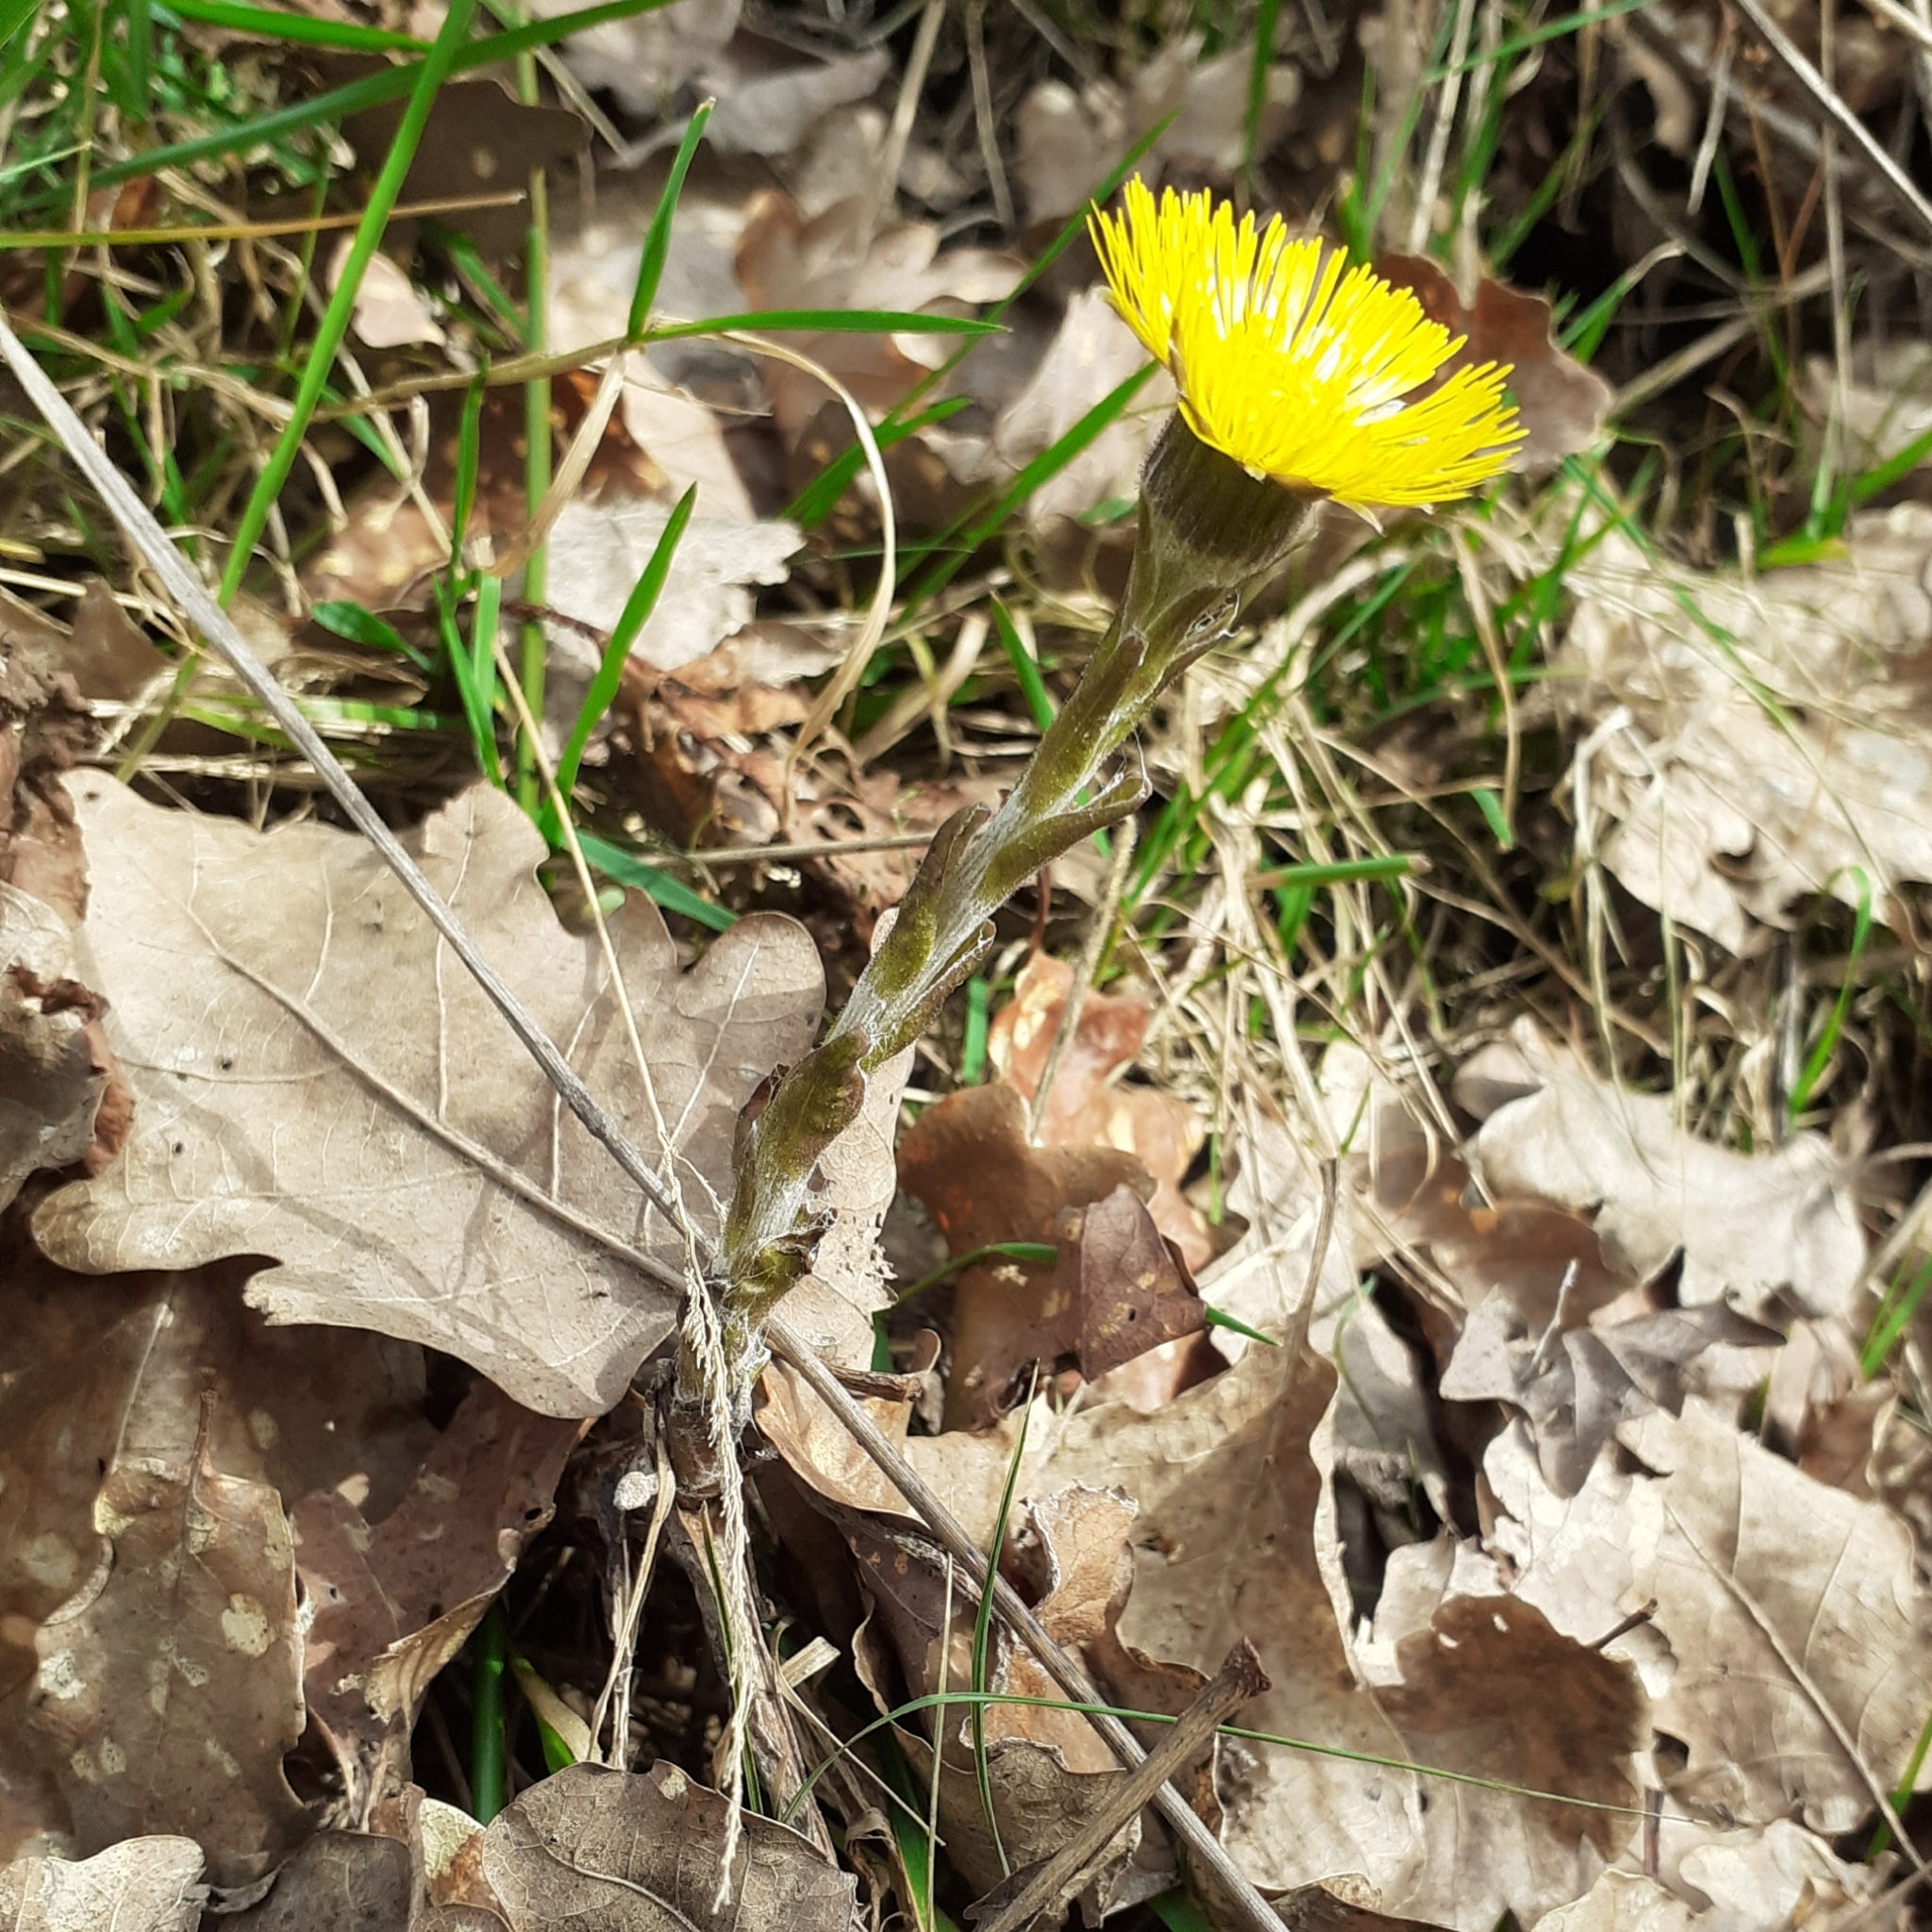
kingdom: Plantae
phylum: Tracheophyta
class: Magnoliopsida
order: Asterales
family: Asteraceae
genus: Tussilago
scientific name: Tussilago farfara
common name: Coltsfoot
